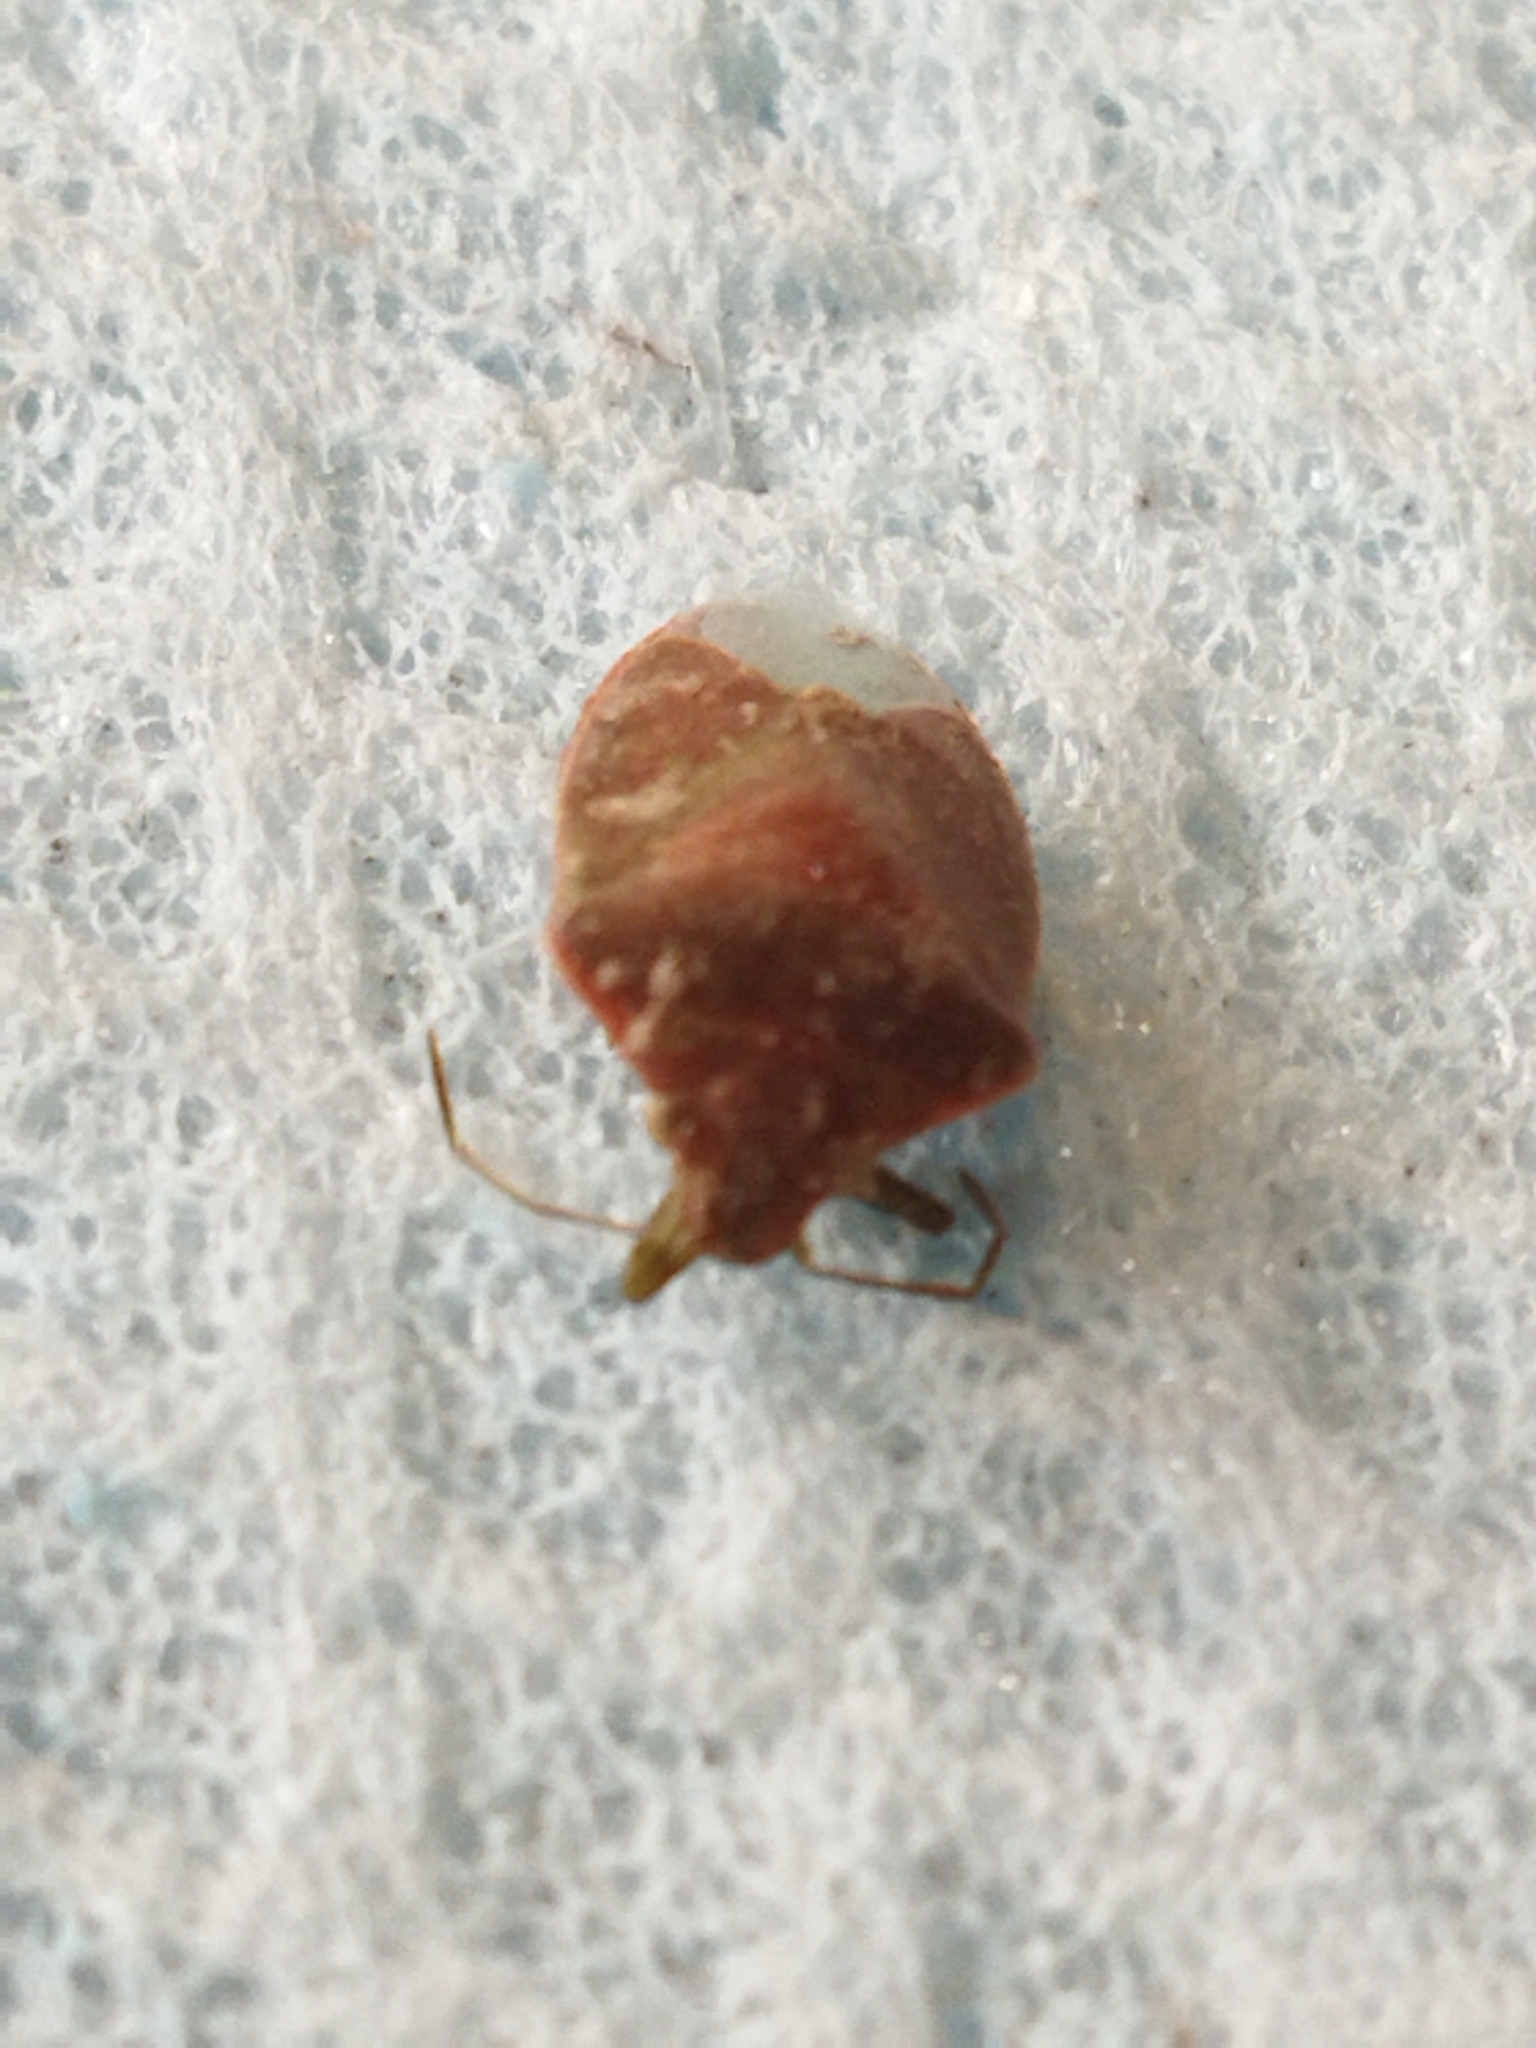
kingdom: Animalia
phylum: Arthropoda
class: Insecta
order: Hemiptera
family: Pentatomidae
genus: Acrosternum
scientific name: Acrosternum heegeri
